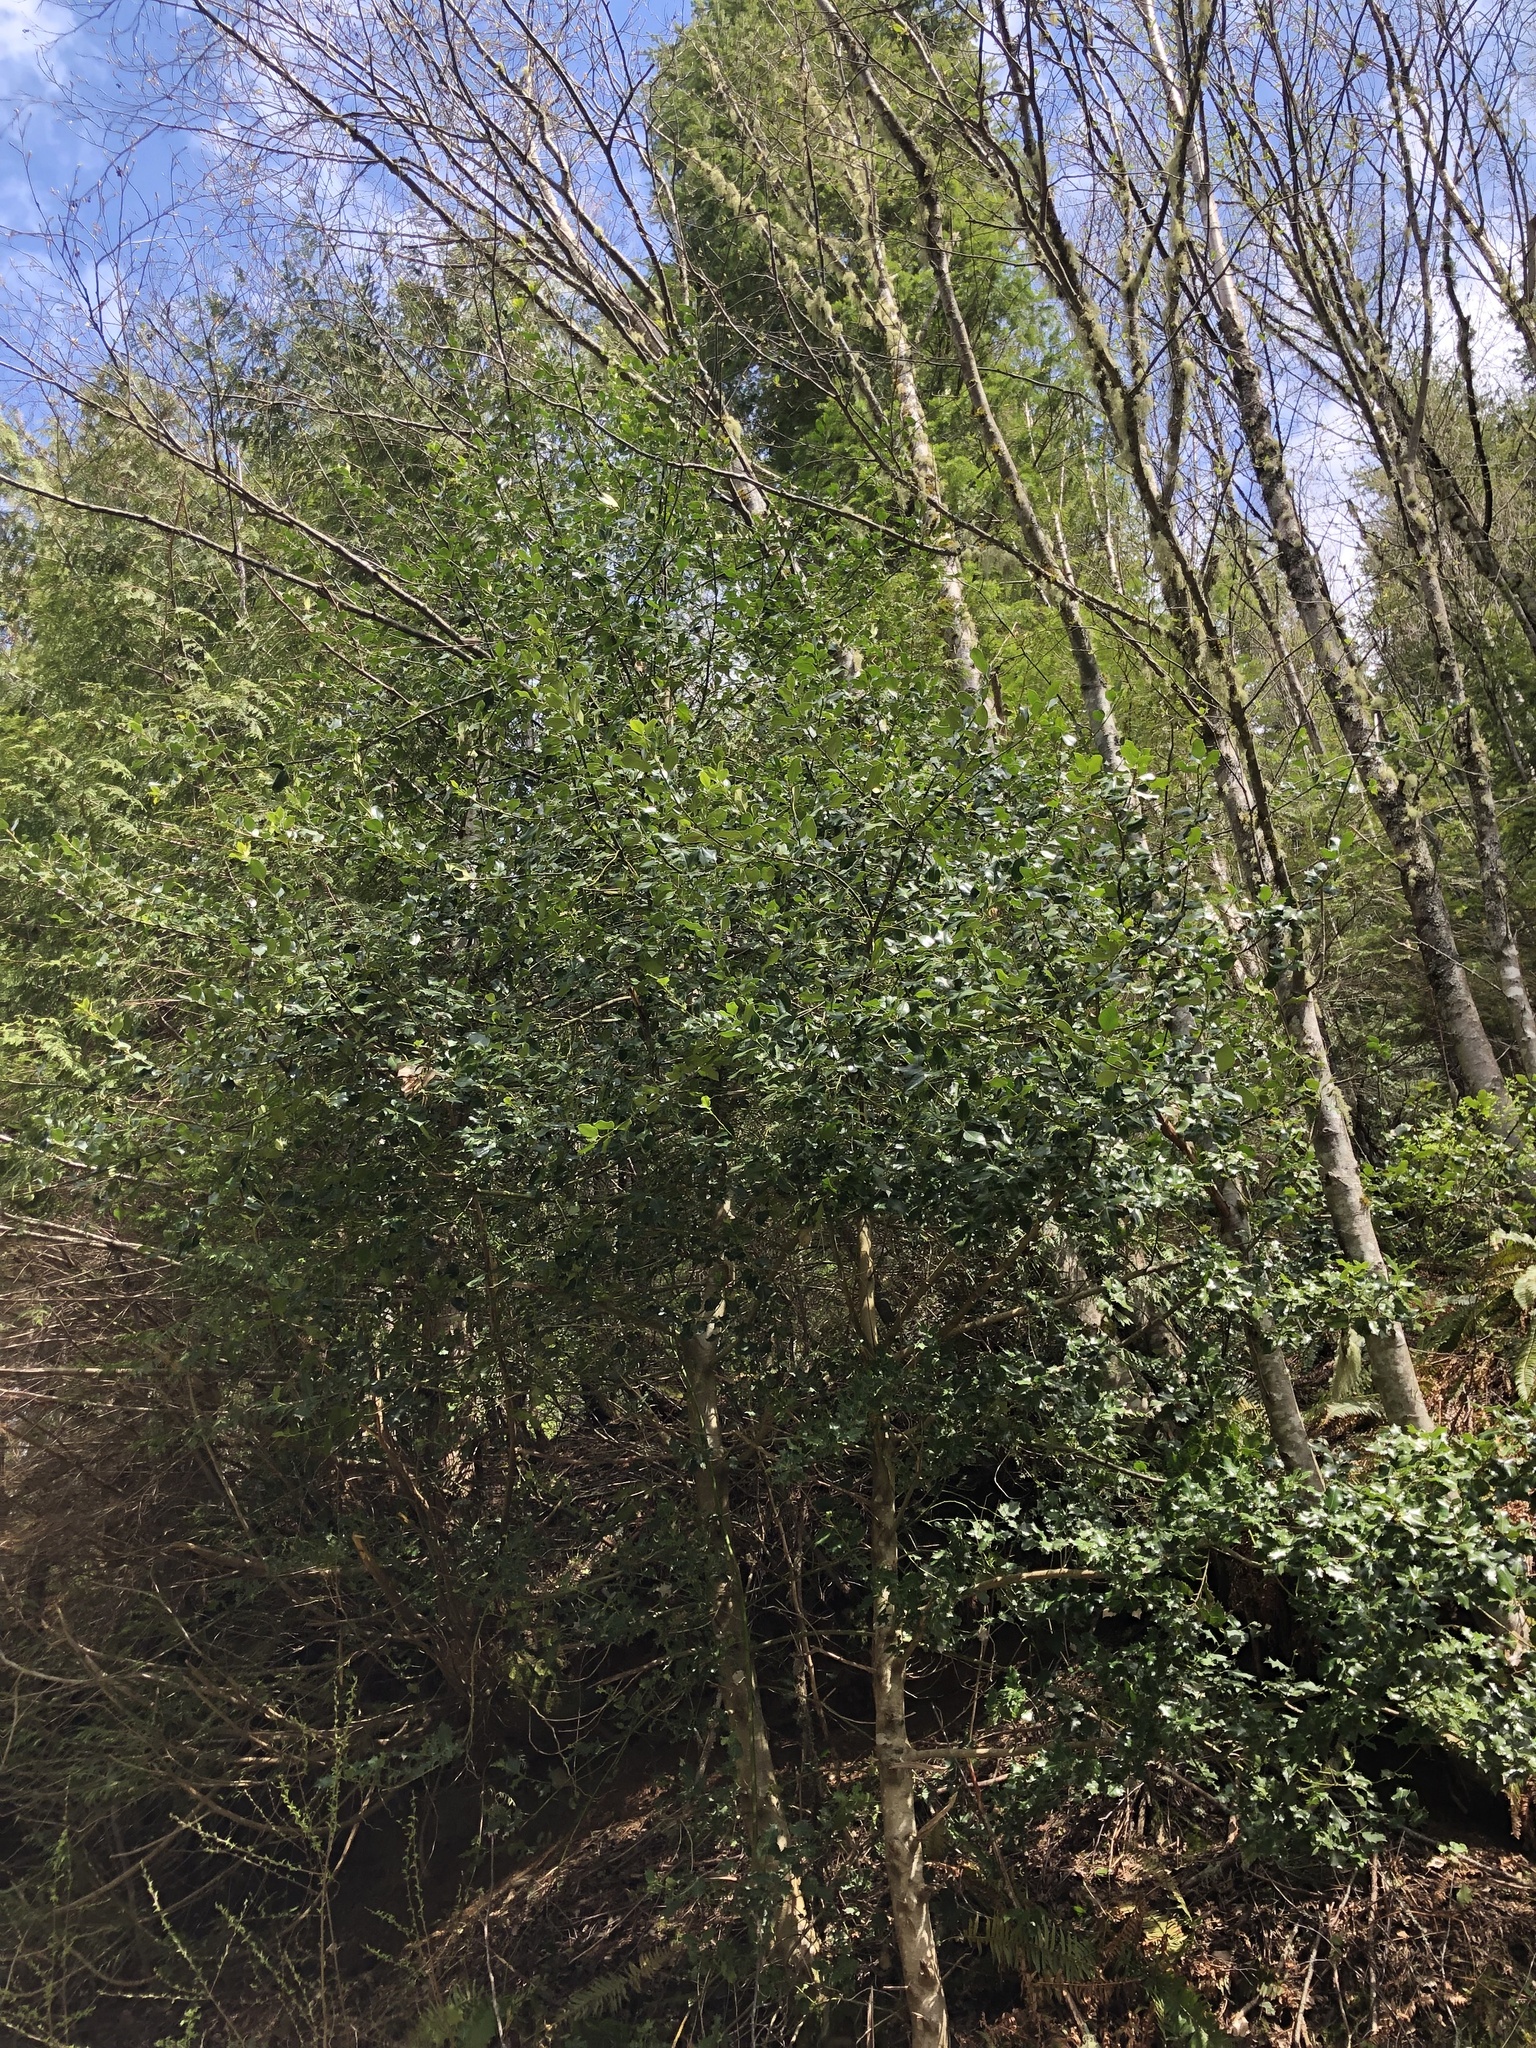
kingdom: Plantae
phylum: Tracheophyta
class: Magnoliopsida
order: Aquifoliales
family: Aquifoliaceae
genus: Ilex
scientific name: Ilex aquifolium
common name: English holly
